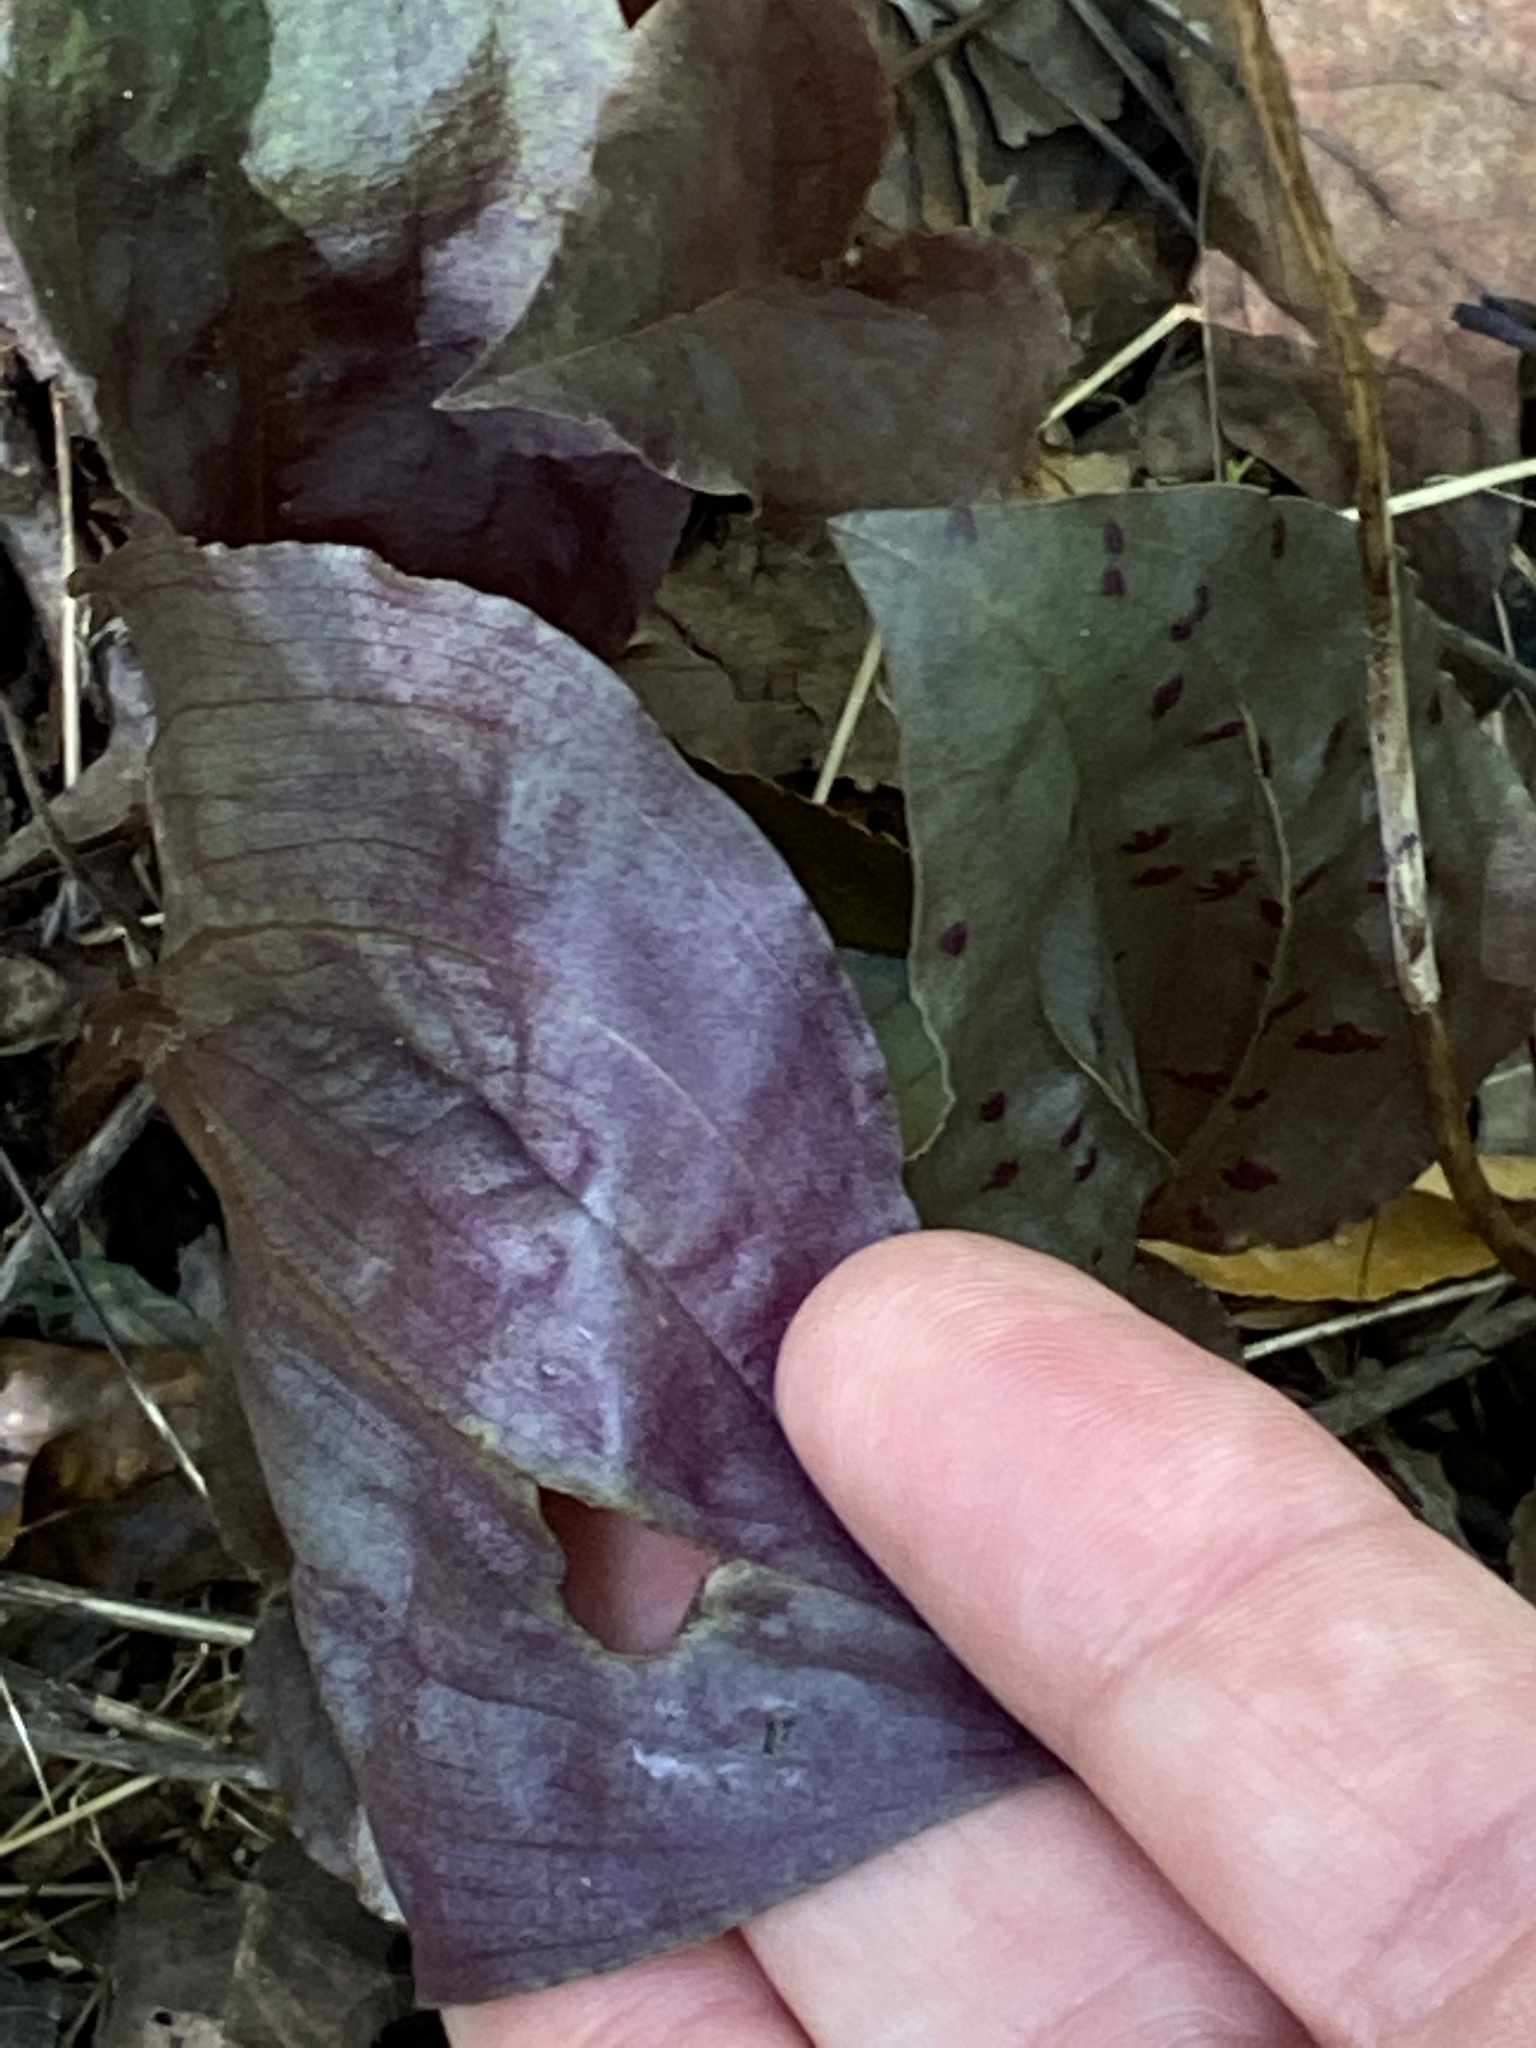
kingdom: Plantae
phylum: Tracheophyta
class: Liliopsida
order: Asparagales
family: Orchidaceae
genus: Tipularia
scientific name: Tipularia discolor
